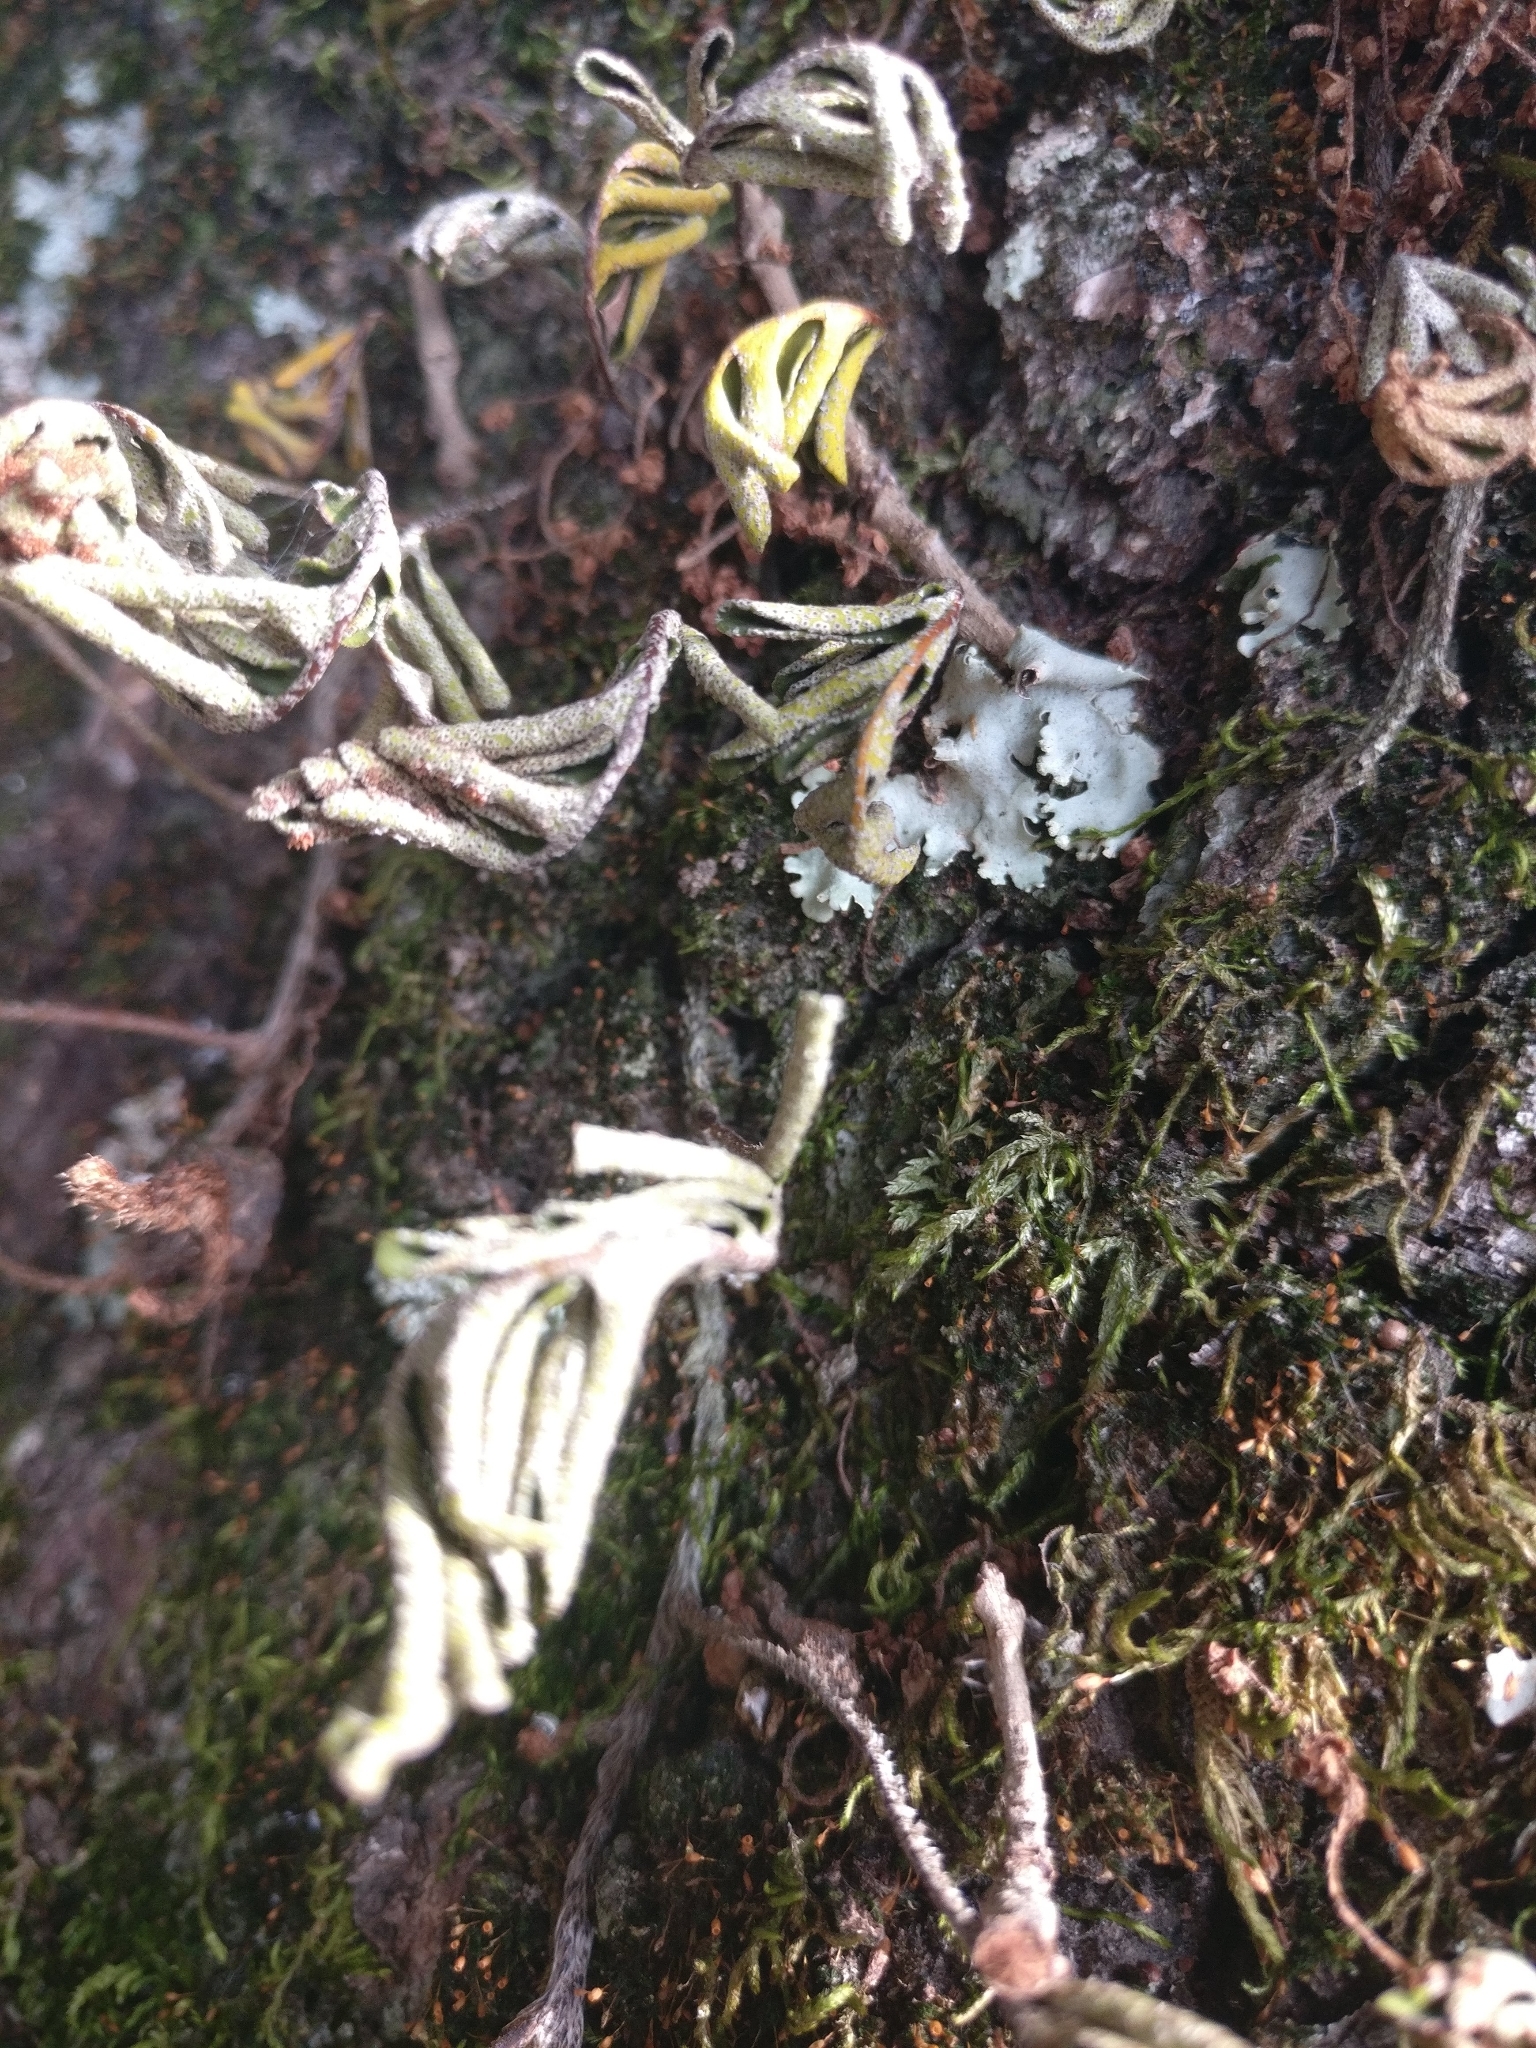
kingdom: Plantae
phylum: Tracheophyta
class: Polypodiopsida
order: Polypodiales
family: Polypodiaceae
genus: Pleopeltis
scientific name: Pleopeltis michauxiana
